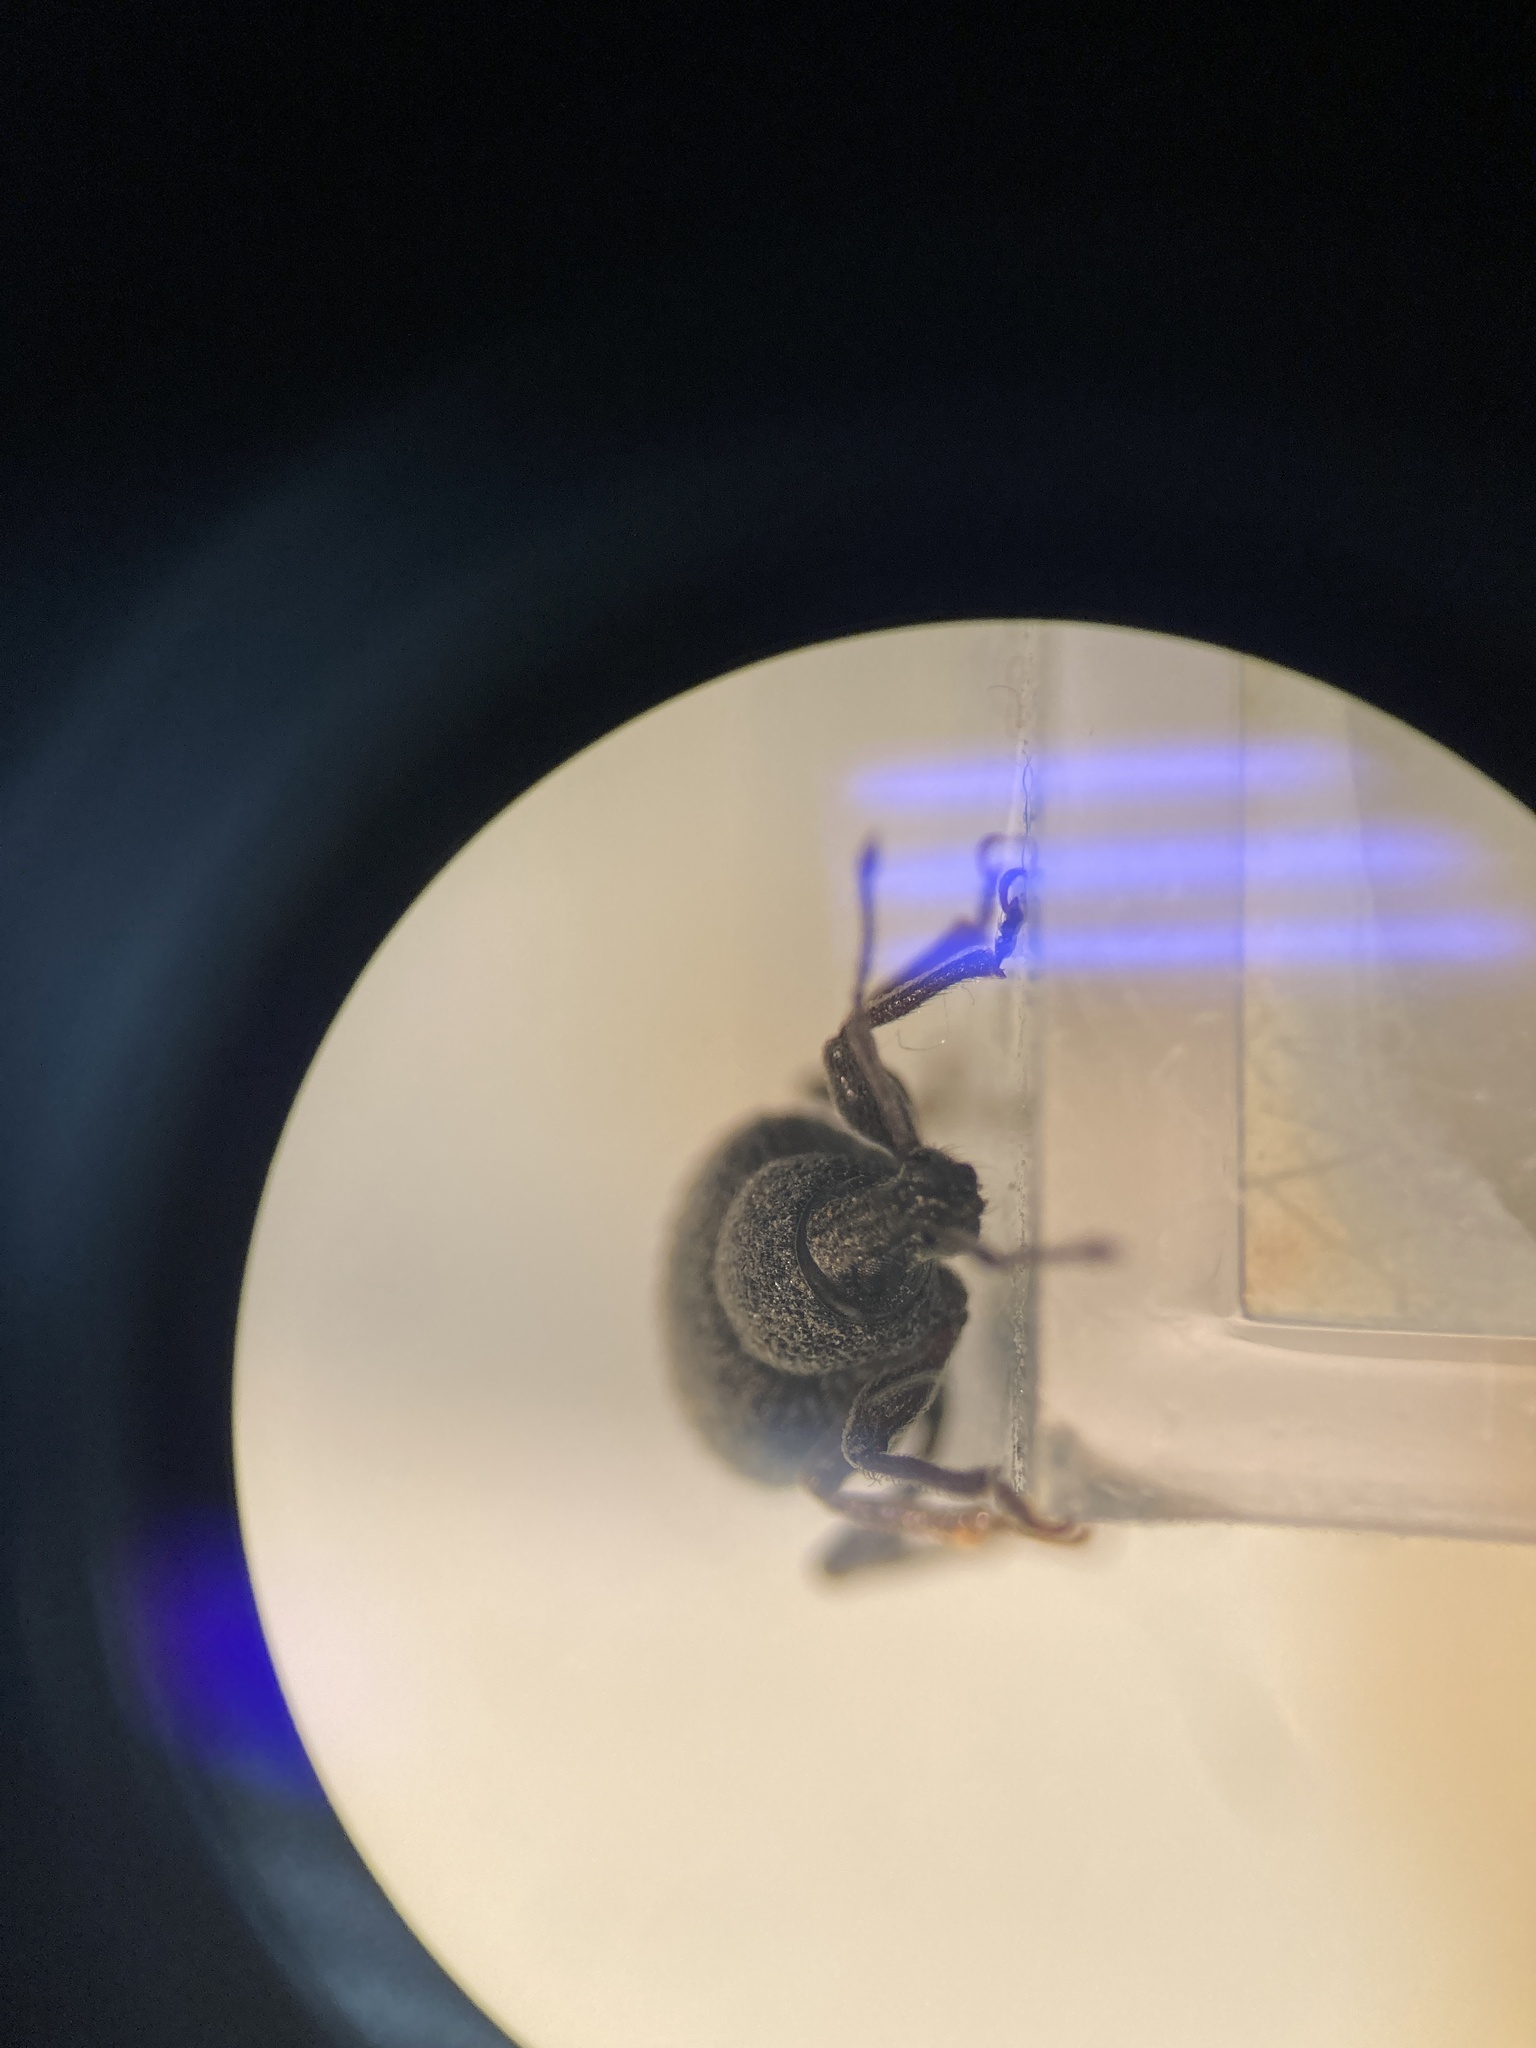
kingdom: Animalia
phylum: Arthropoda
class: Insecta
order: Coleoptera
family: Curculionidae
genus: Otiorhynchus
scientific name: Otiorhynchus rugosostriatus
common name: Weevil
